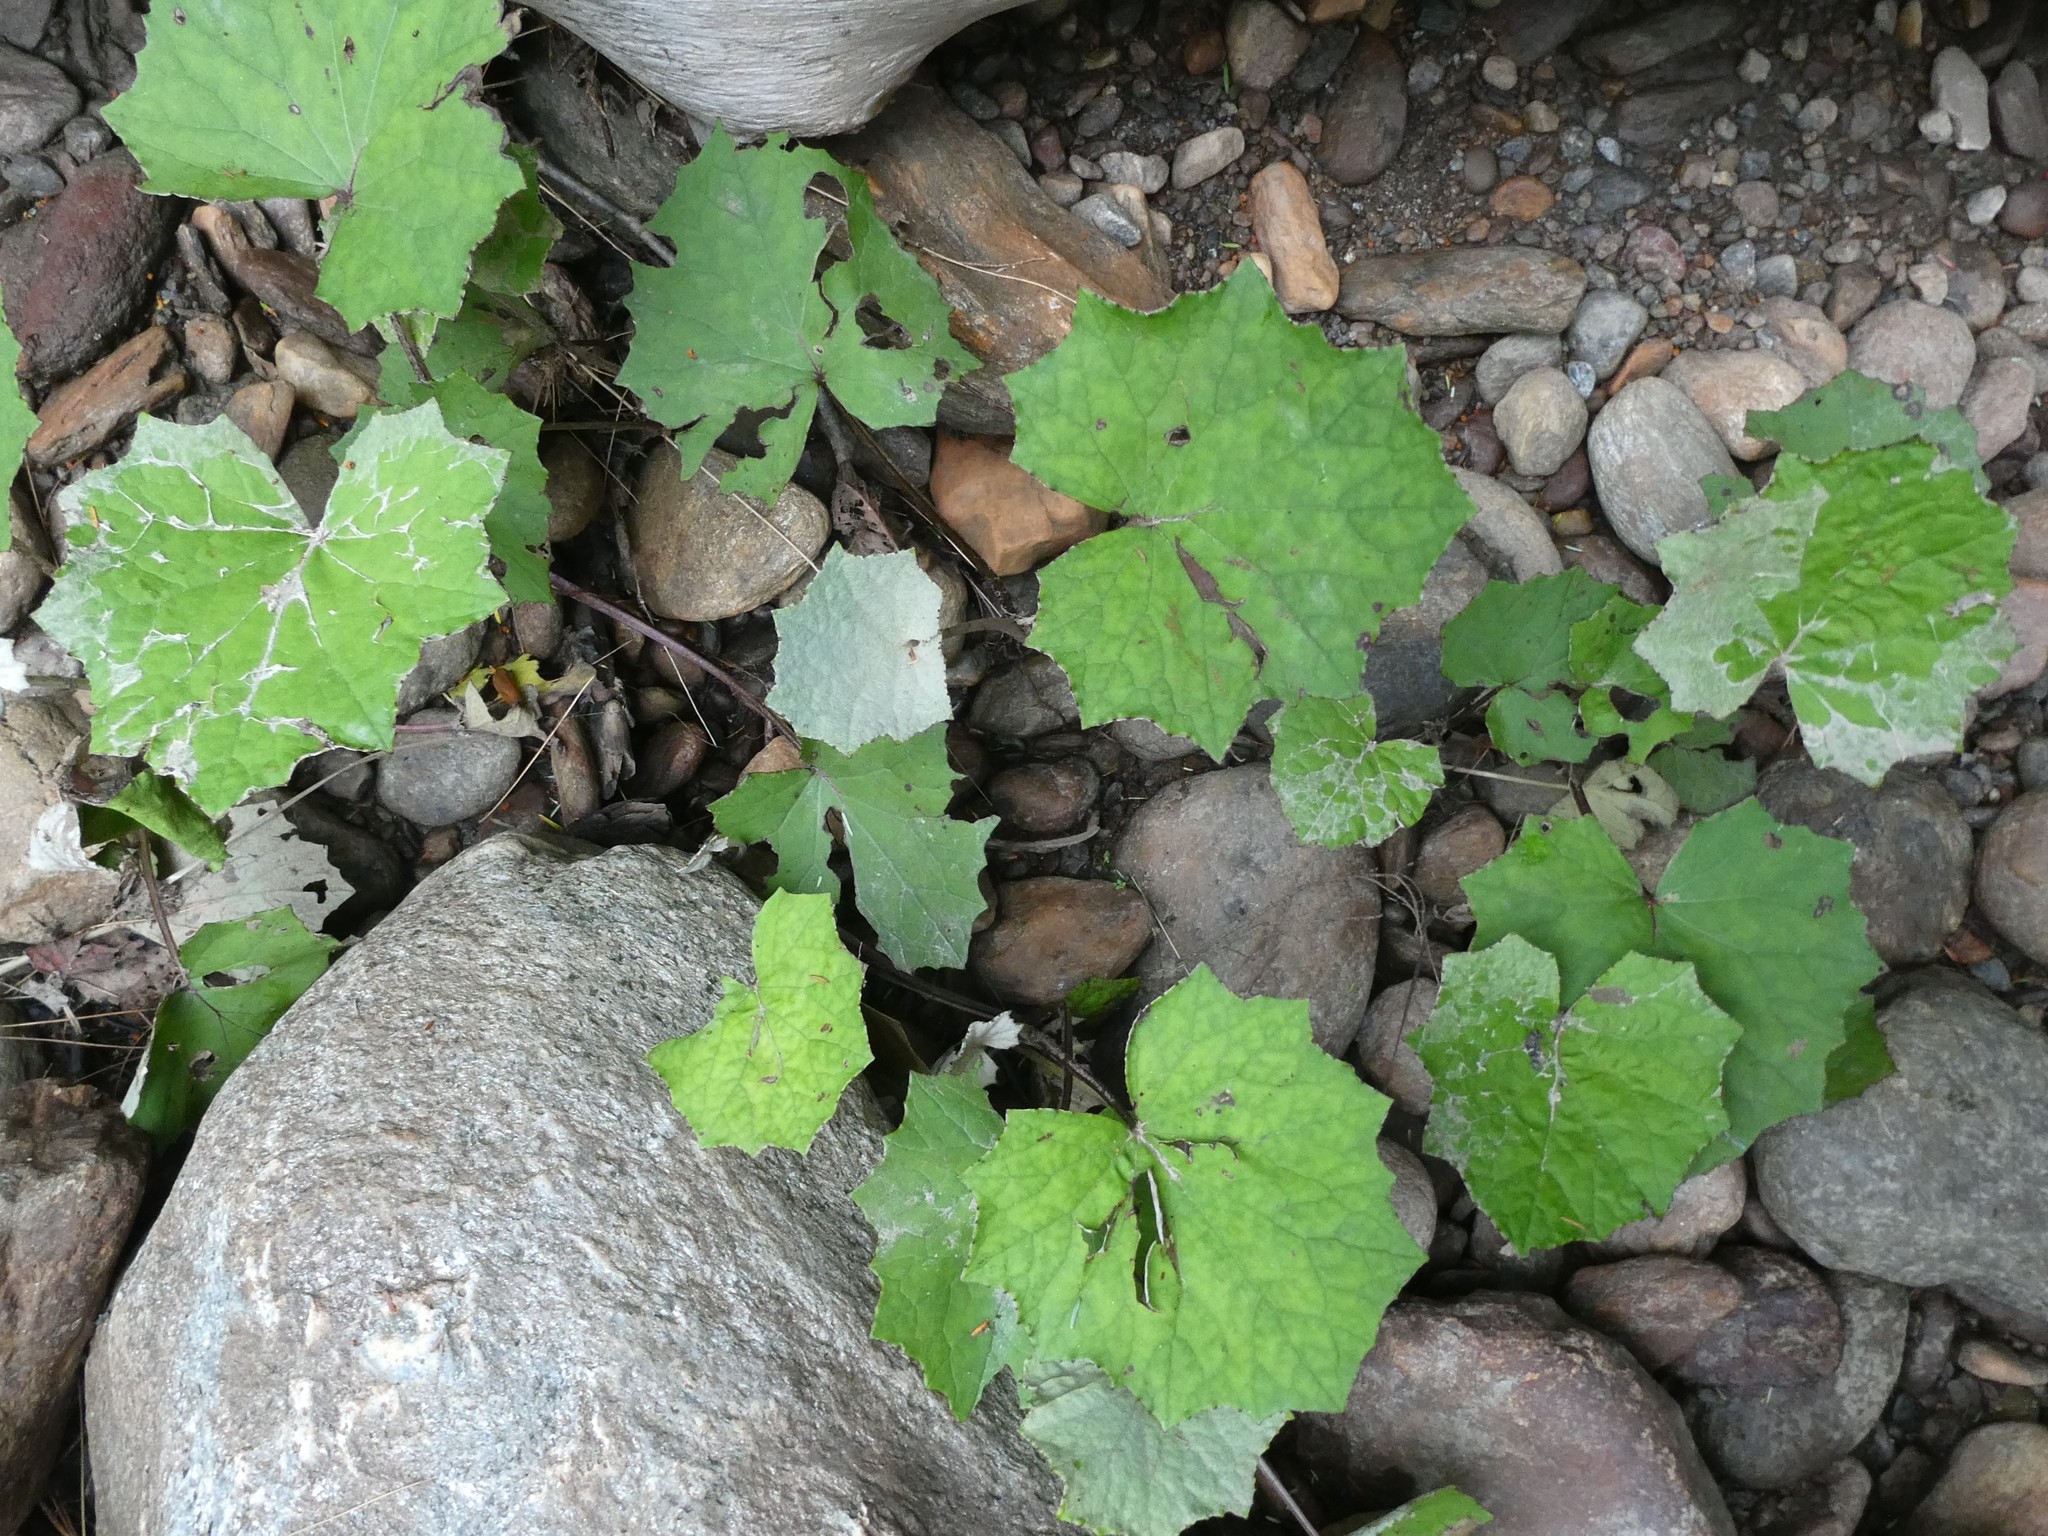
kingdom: Plantae
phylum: Tracheophyta
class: Magnoliopsida
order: Asterales
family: Asteraceae
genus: Tussilago
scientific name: Tussilago farfara
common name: Coltsfoot
